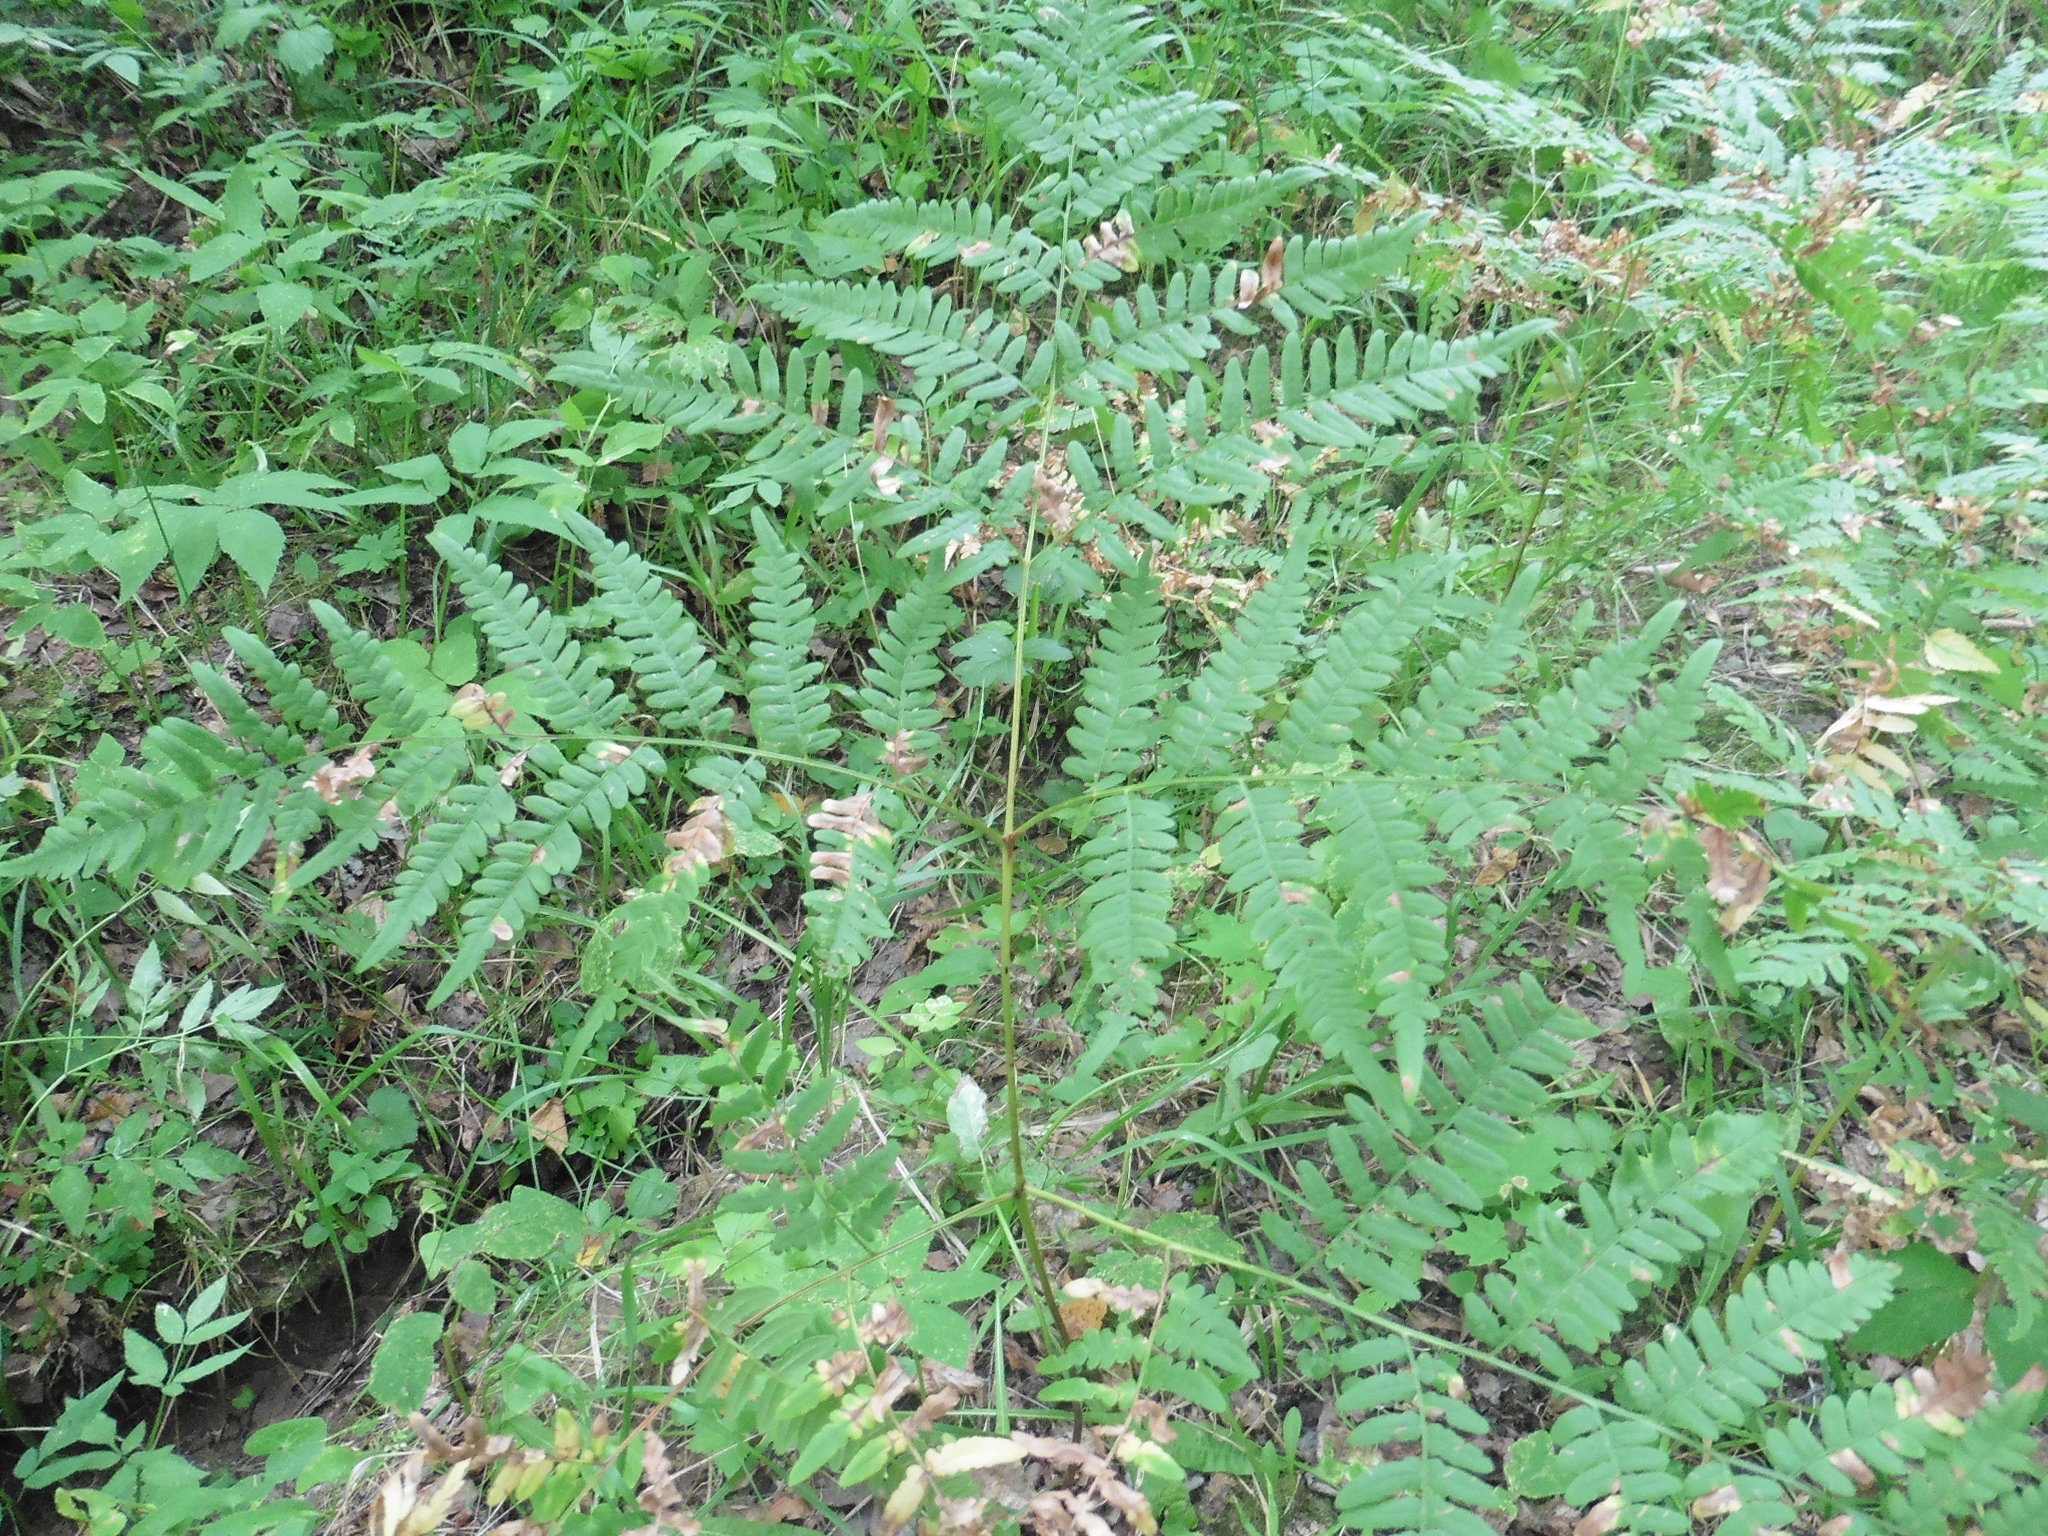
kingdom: Plantae
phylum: Tracheophyta
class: Polypodiopsida
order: Polypodiales
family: Dennstaedtiaceae
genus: Pteridium
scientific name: Pteridium aquilinum
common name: Bracken
